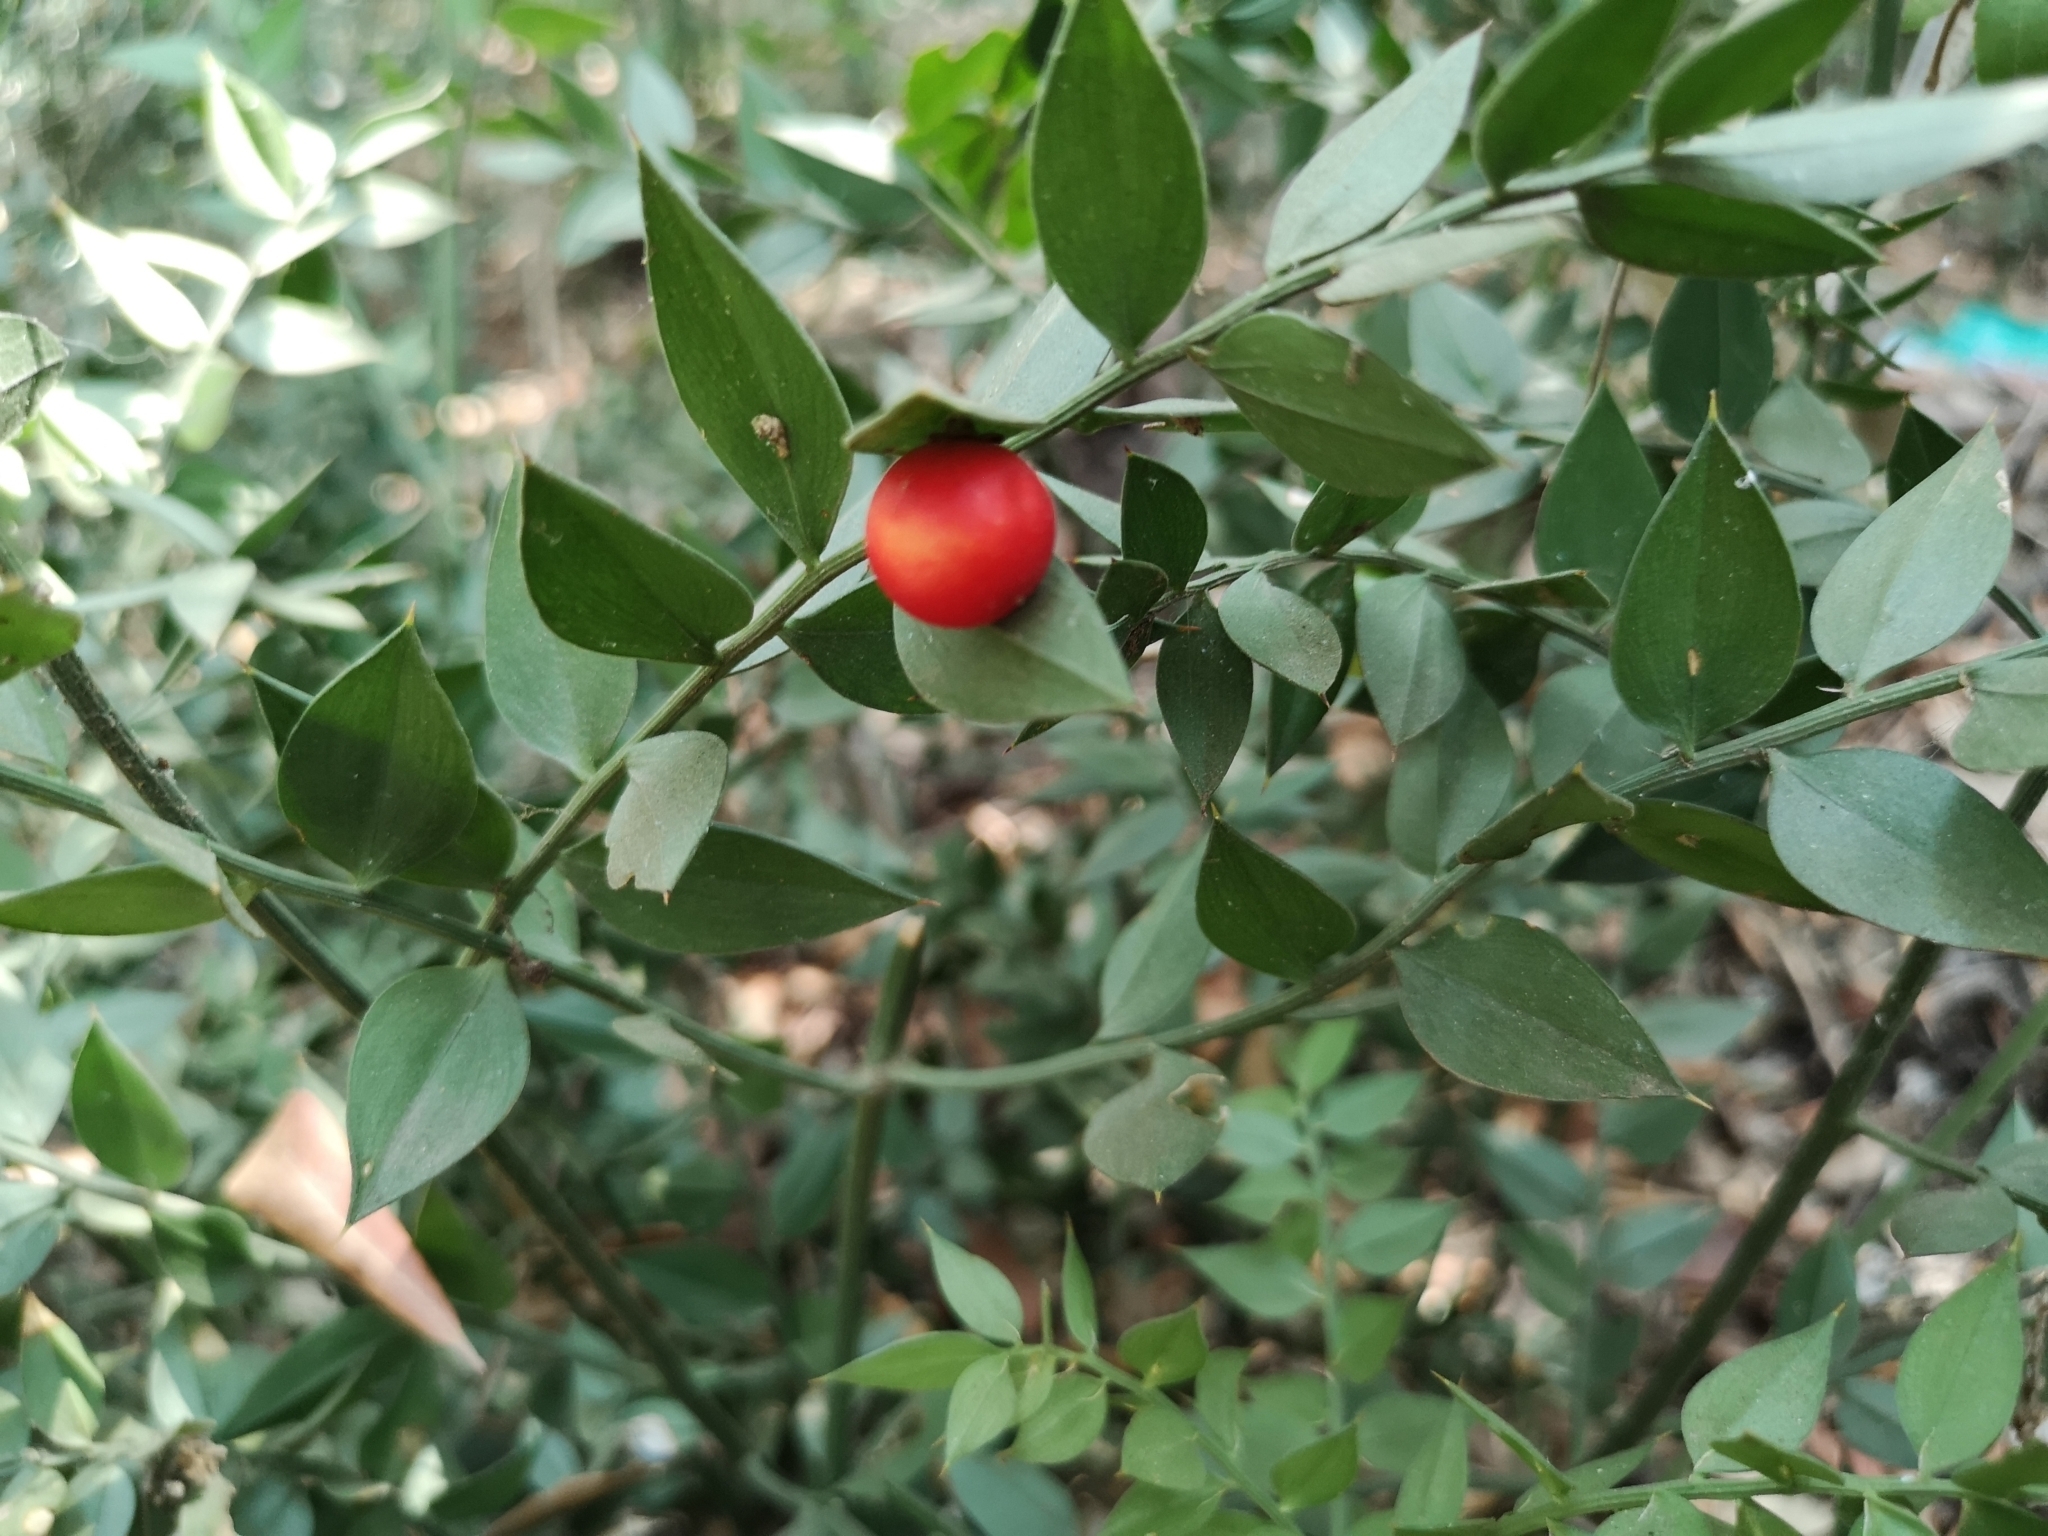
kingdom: Plantae
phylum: Tracheophyta
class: Liliopsida
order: Asparagales
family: Asparagaceae
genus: Ruscus
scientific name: Ruscus aculeatus
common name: Butcher's-broom
